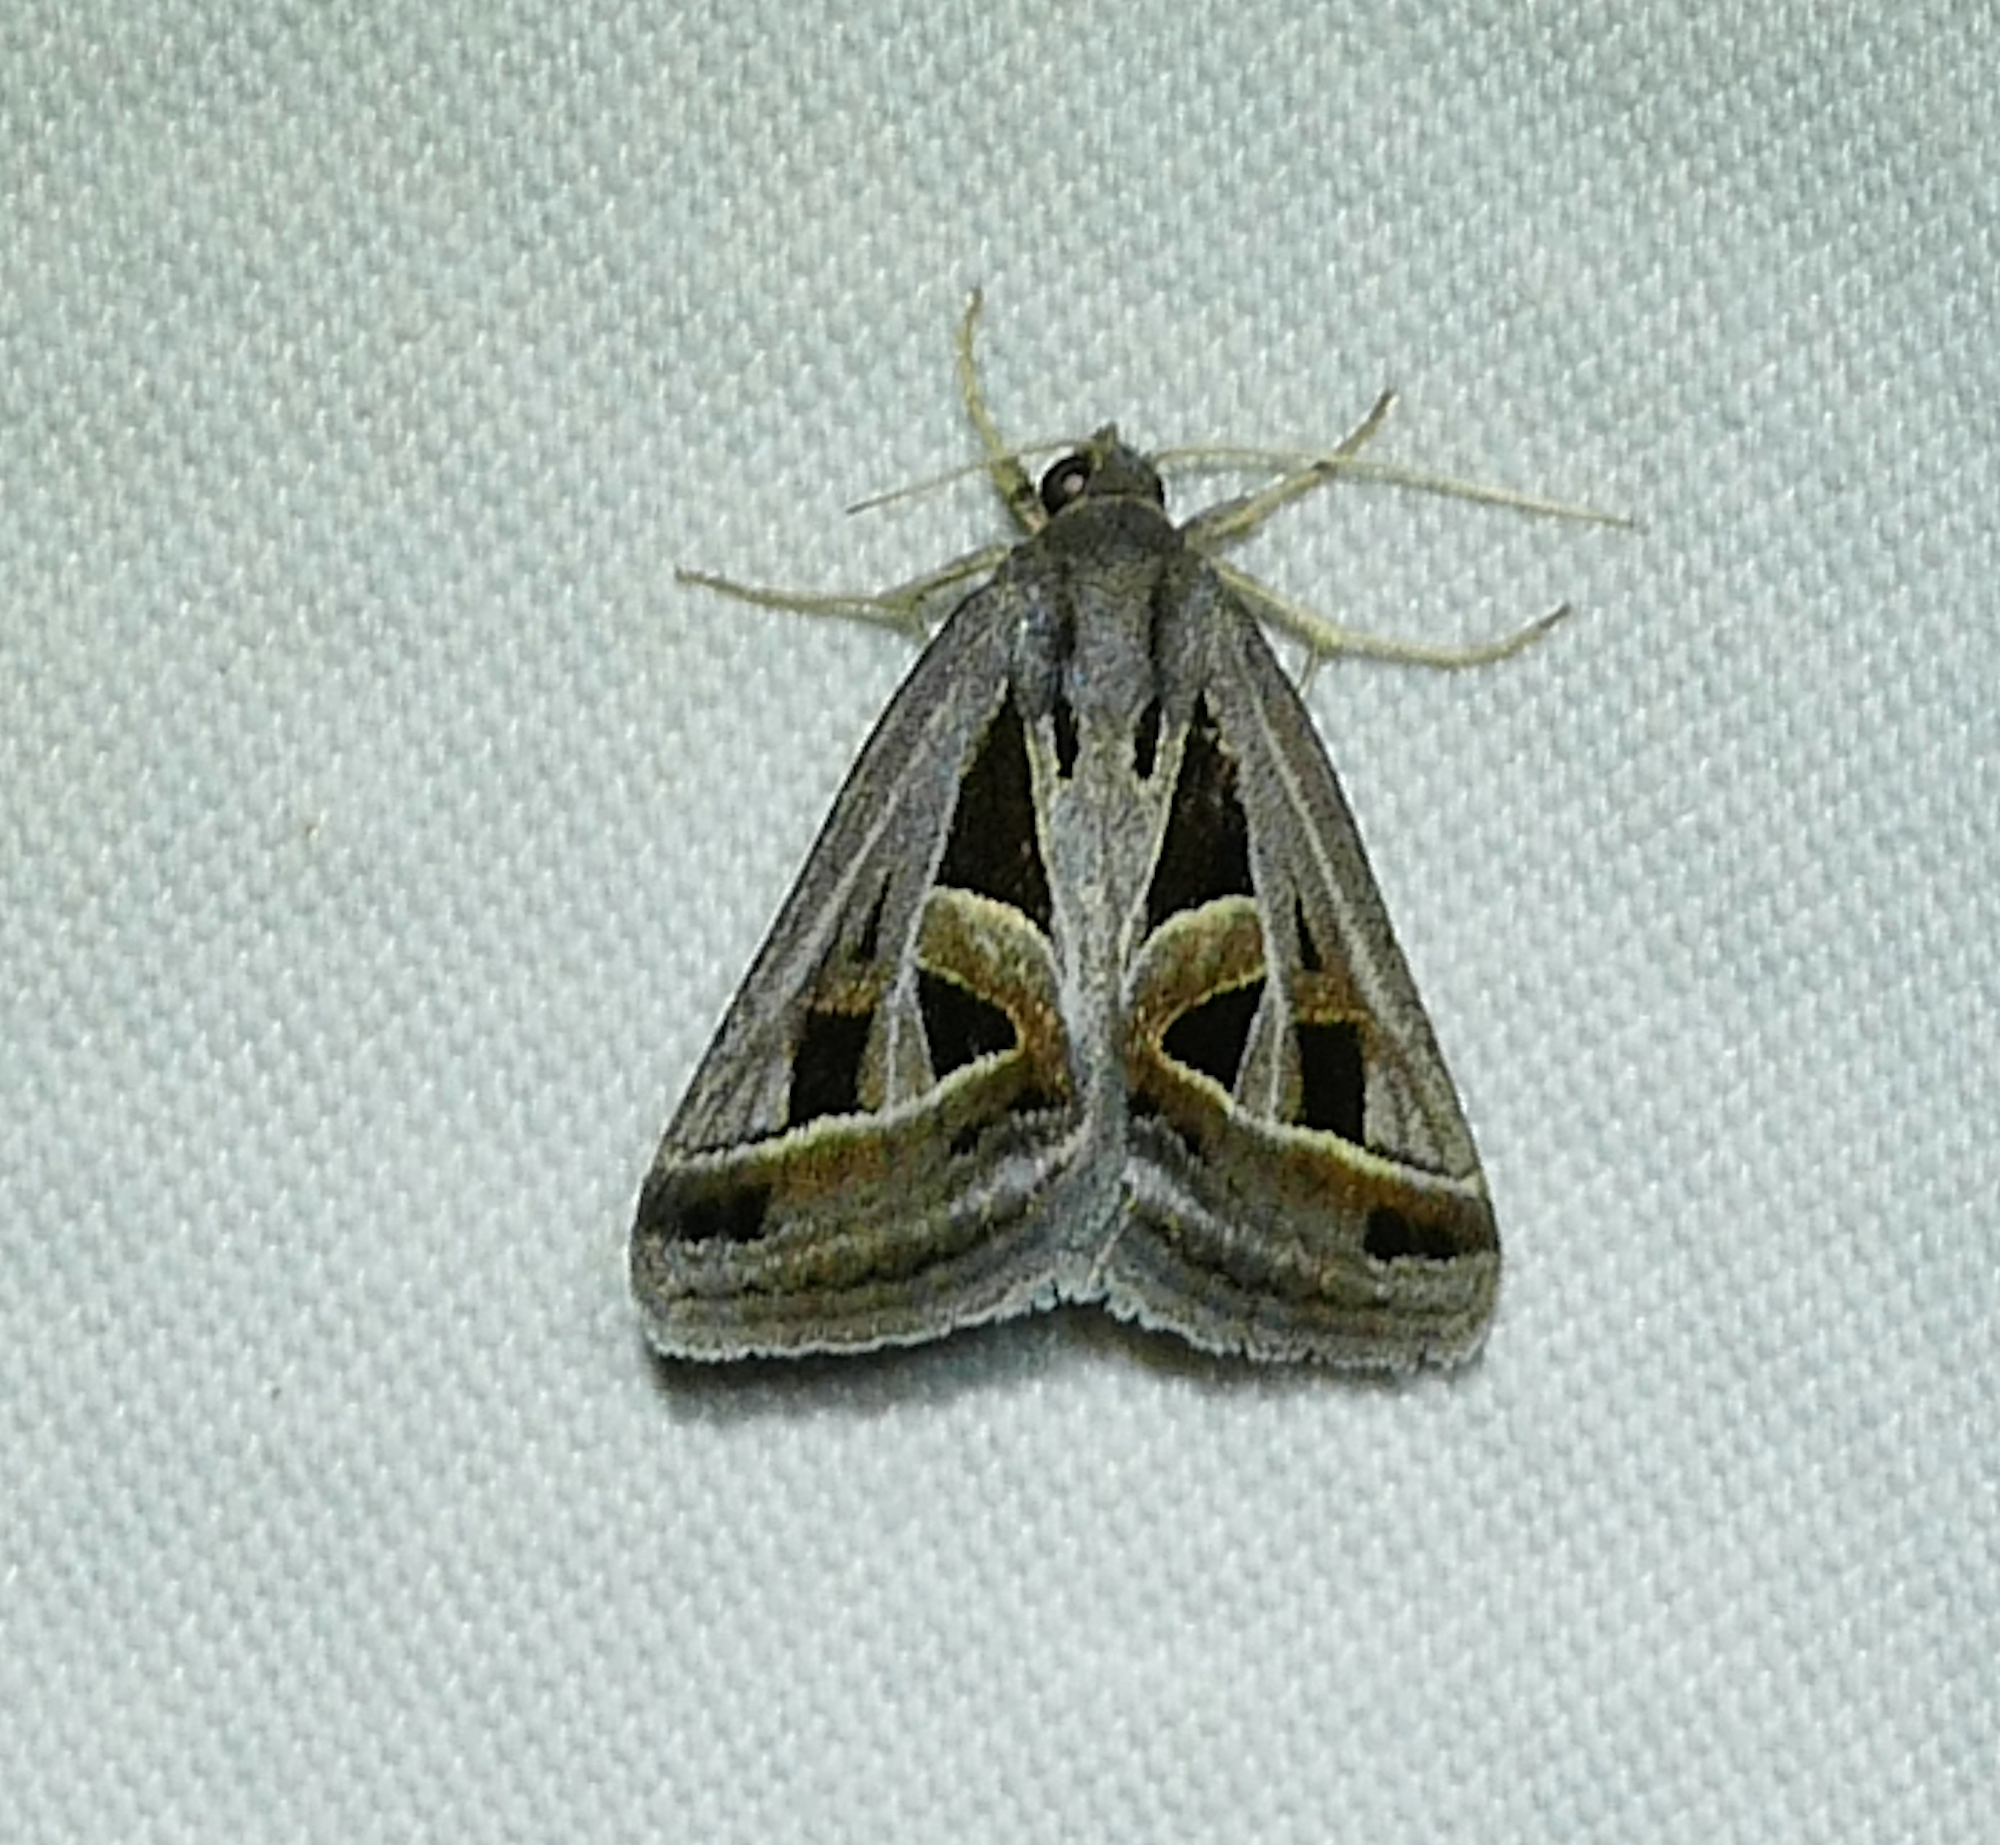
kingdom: Animalia
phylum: Arthropoda
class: Insecta
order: Lepidoptera
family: Erebidae
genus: Callistege
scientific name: Callistege diagonalis
